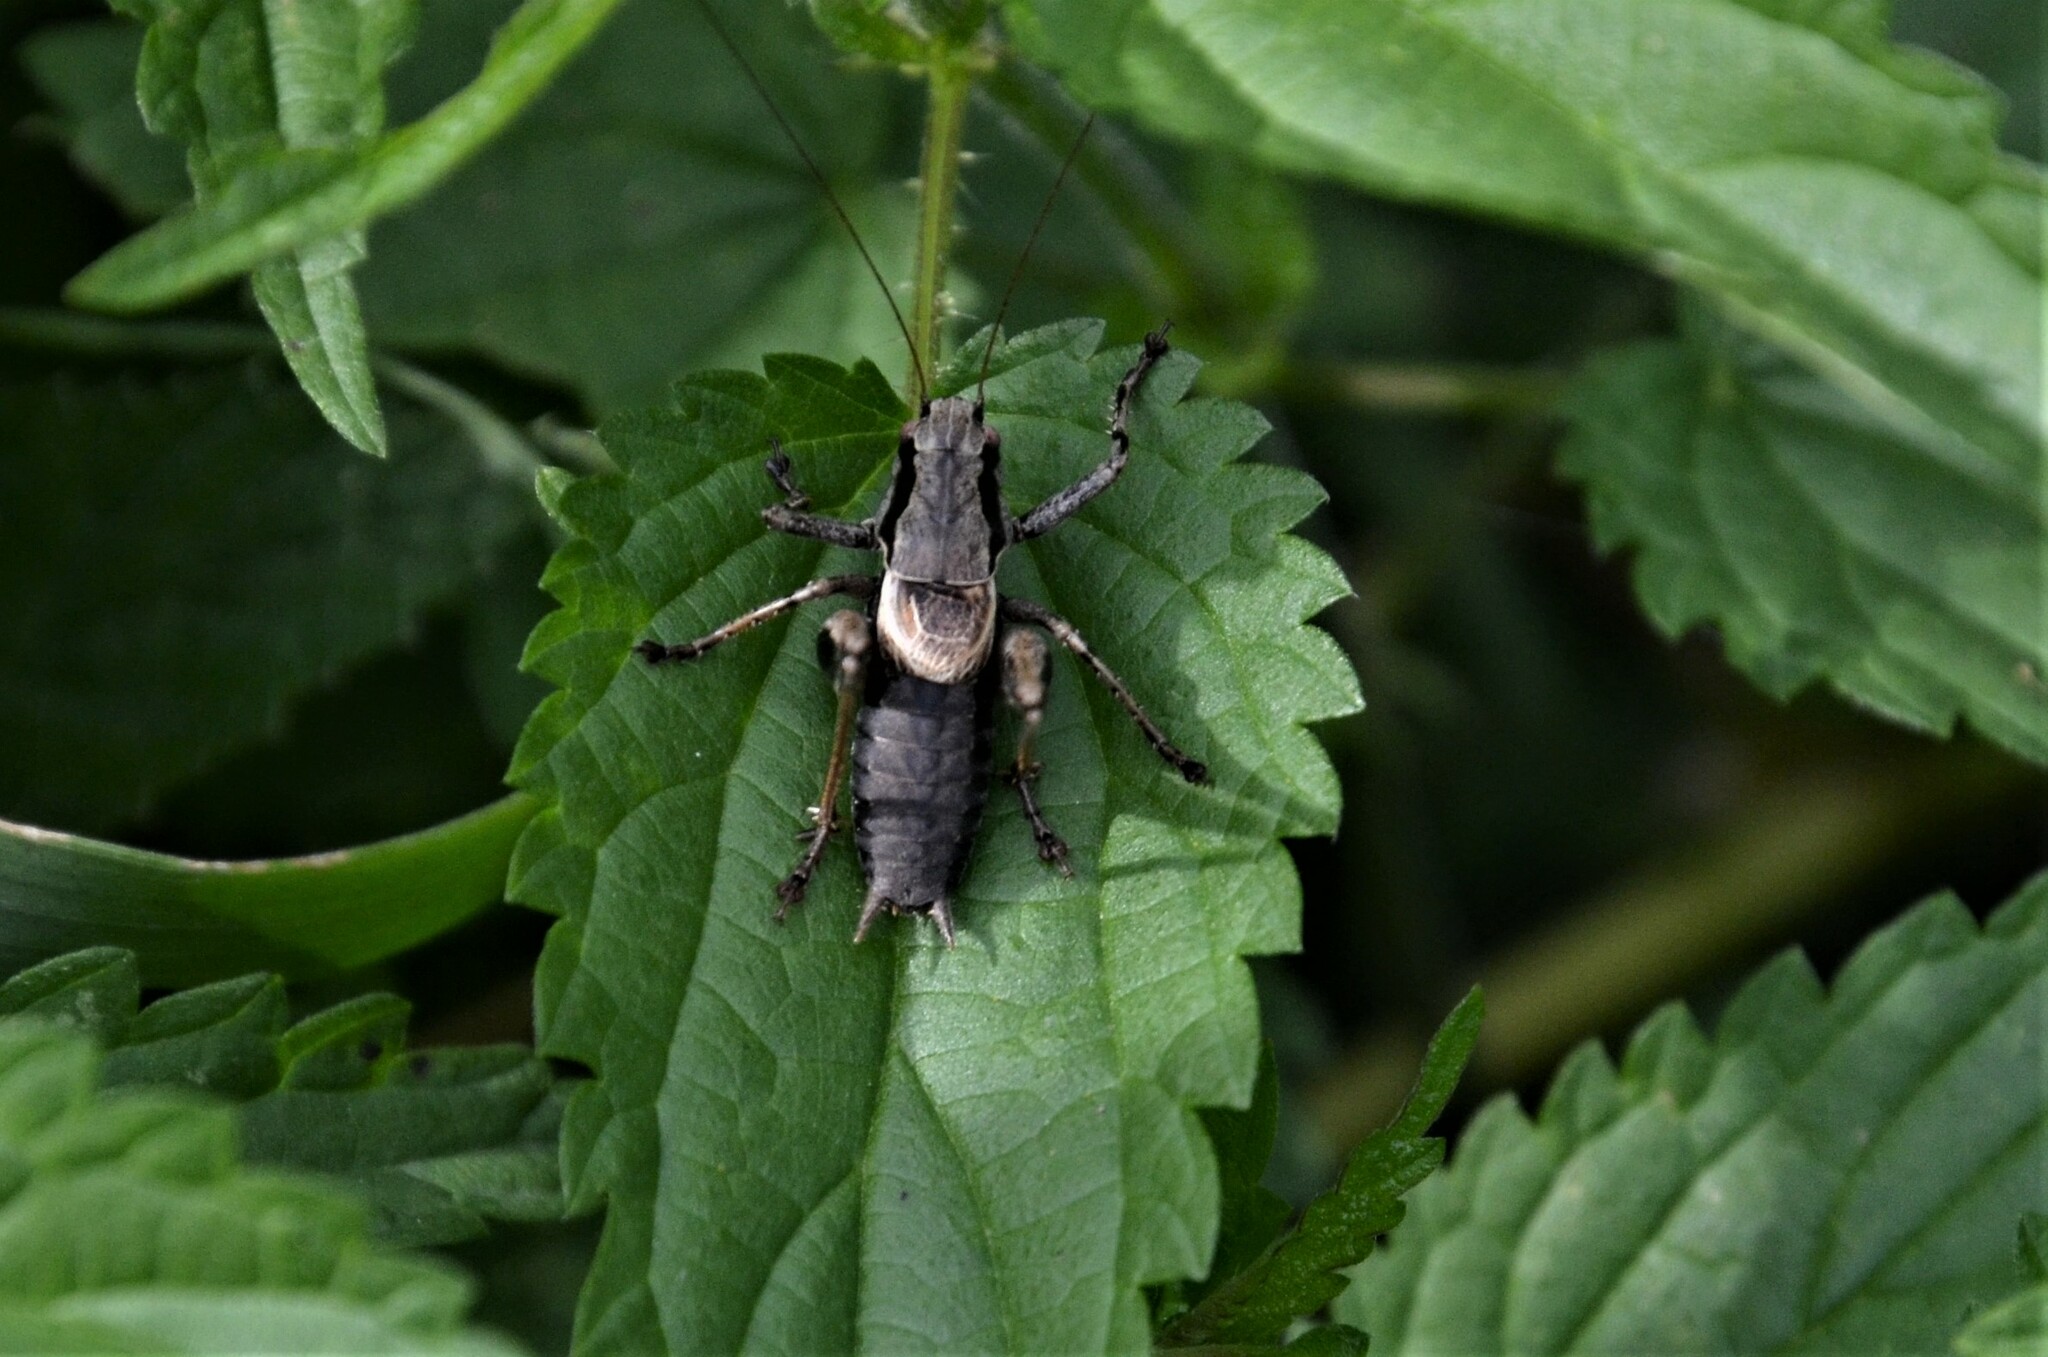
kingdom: Animalia
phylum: Arthropoda
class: Insecta
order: Orthoptera
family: Tettigoniidae
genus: Pholidoptera
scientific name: Pholidoptera griseoaptera
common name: Dark bush-cricket
